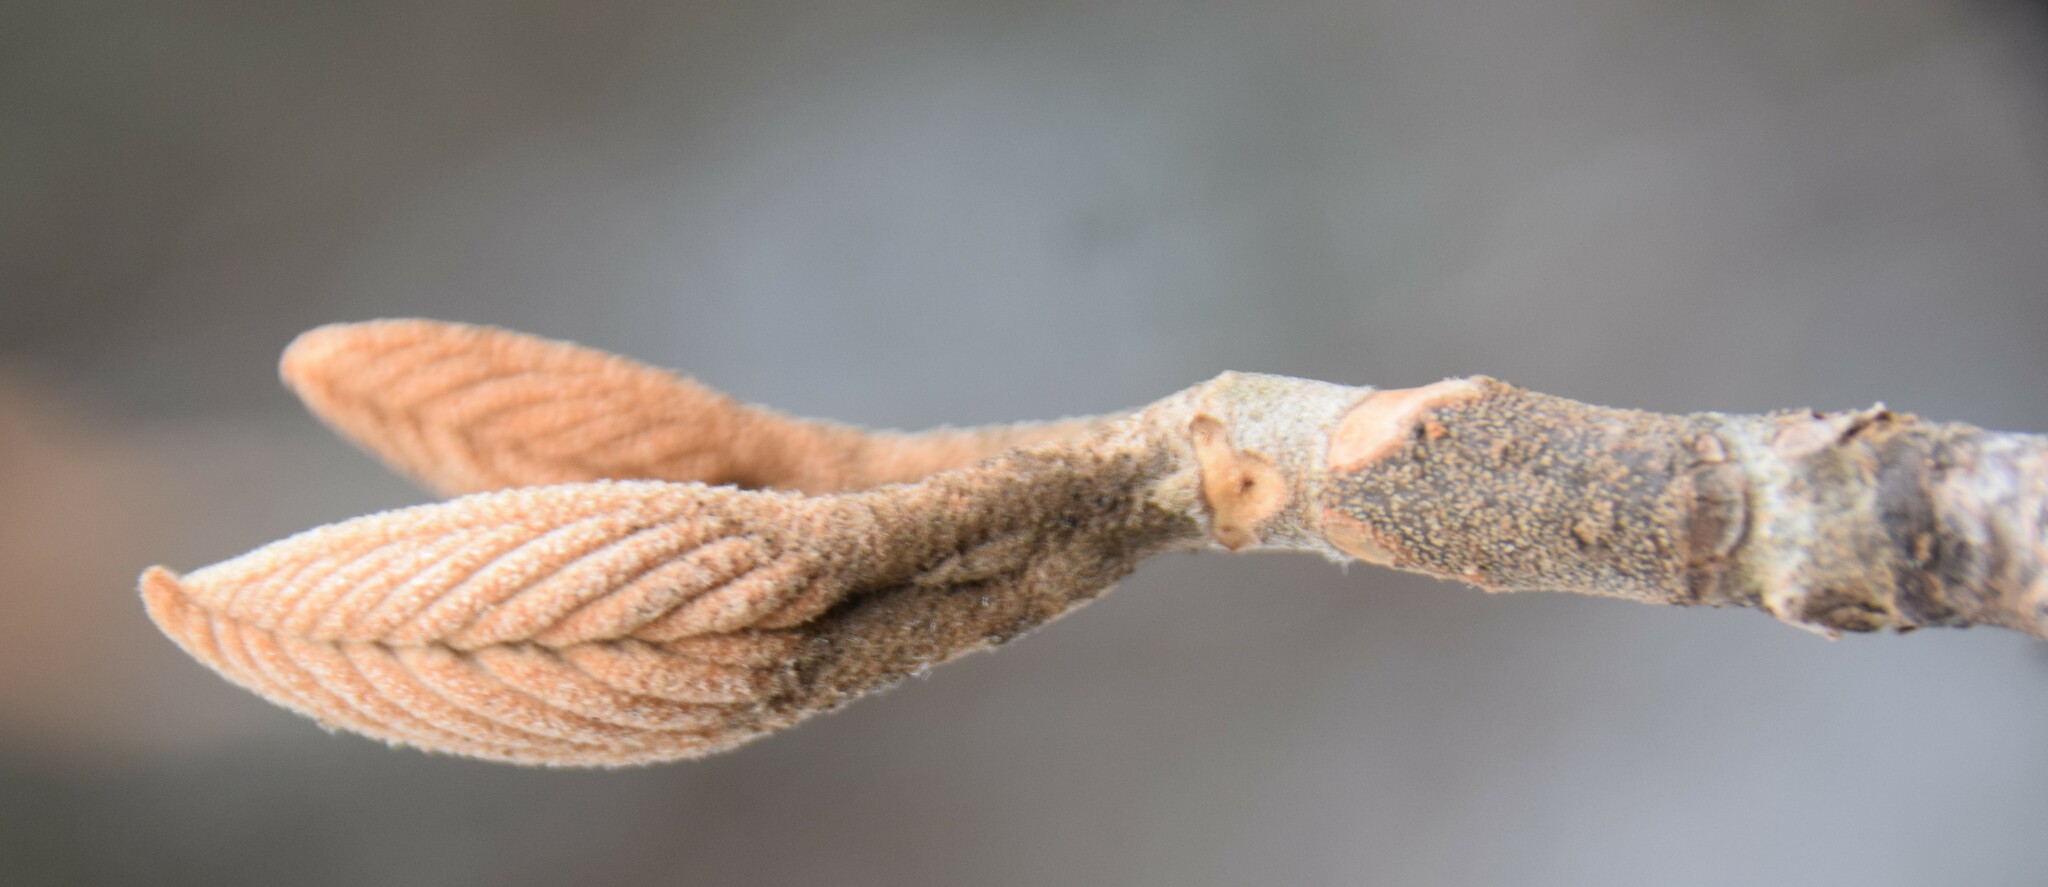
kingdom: Plantae
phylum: Tracheophyta
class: Magnoliopsida
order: Dipsacales
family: Viburnaceae
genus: Viburnum
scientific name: Viburnum lantanoides
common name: Hobblebush
